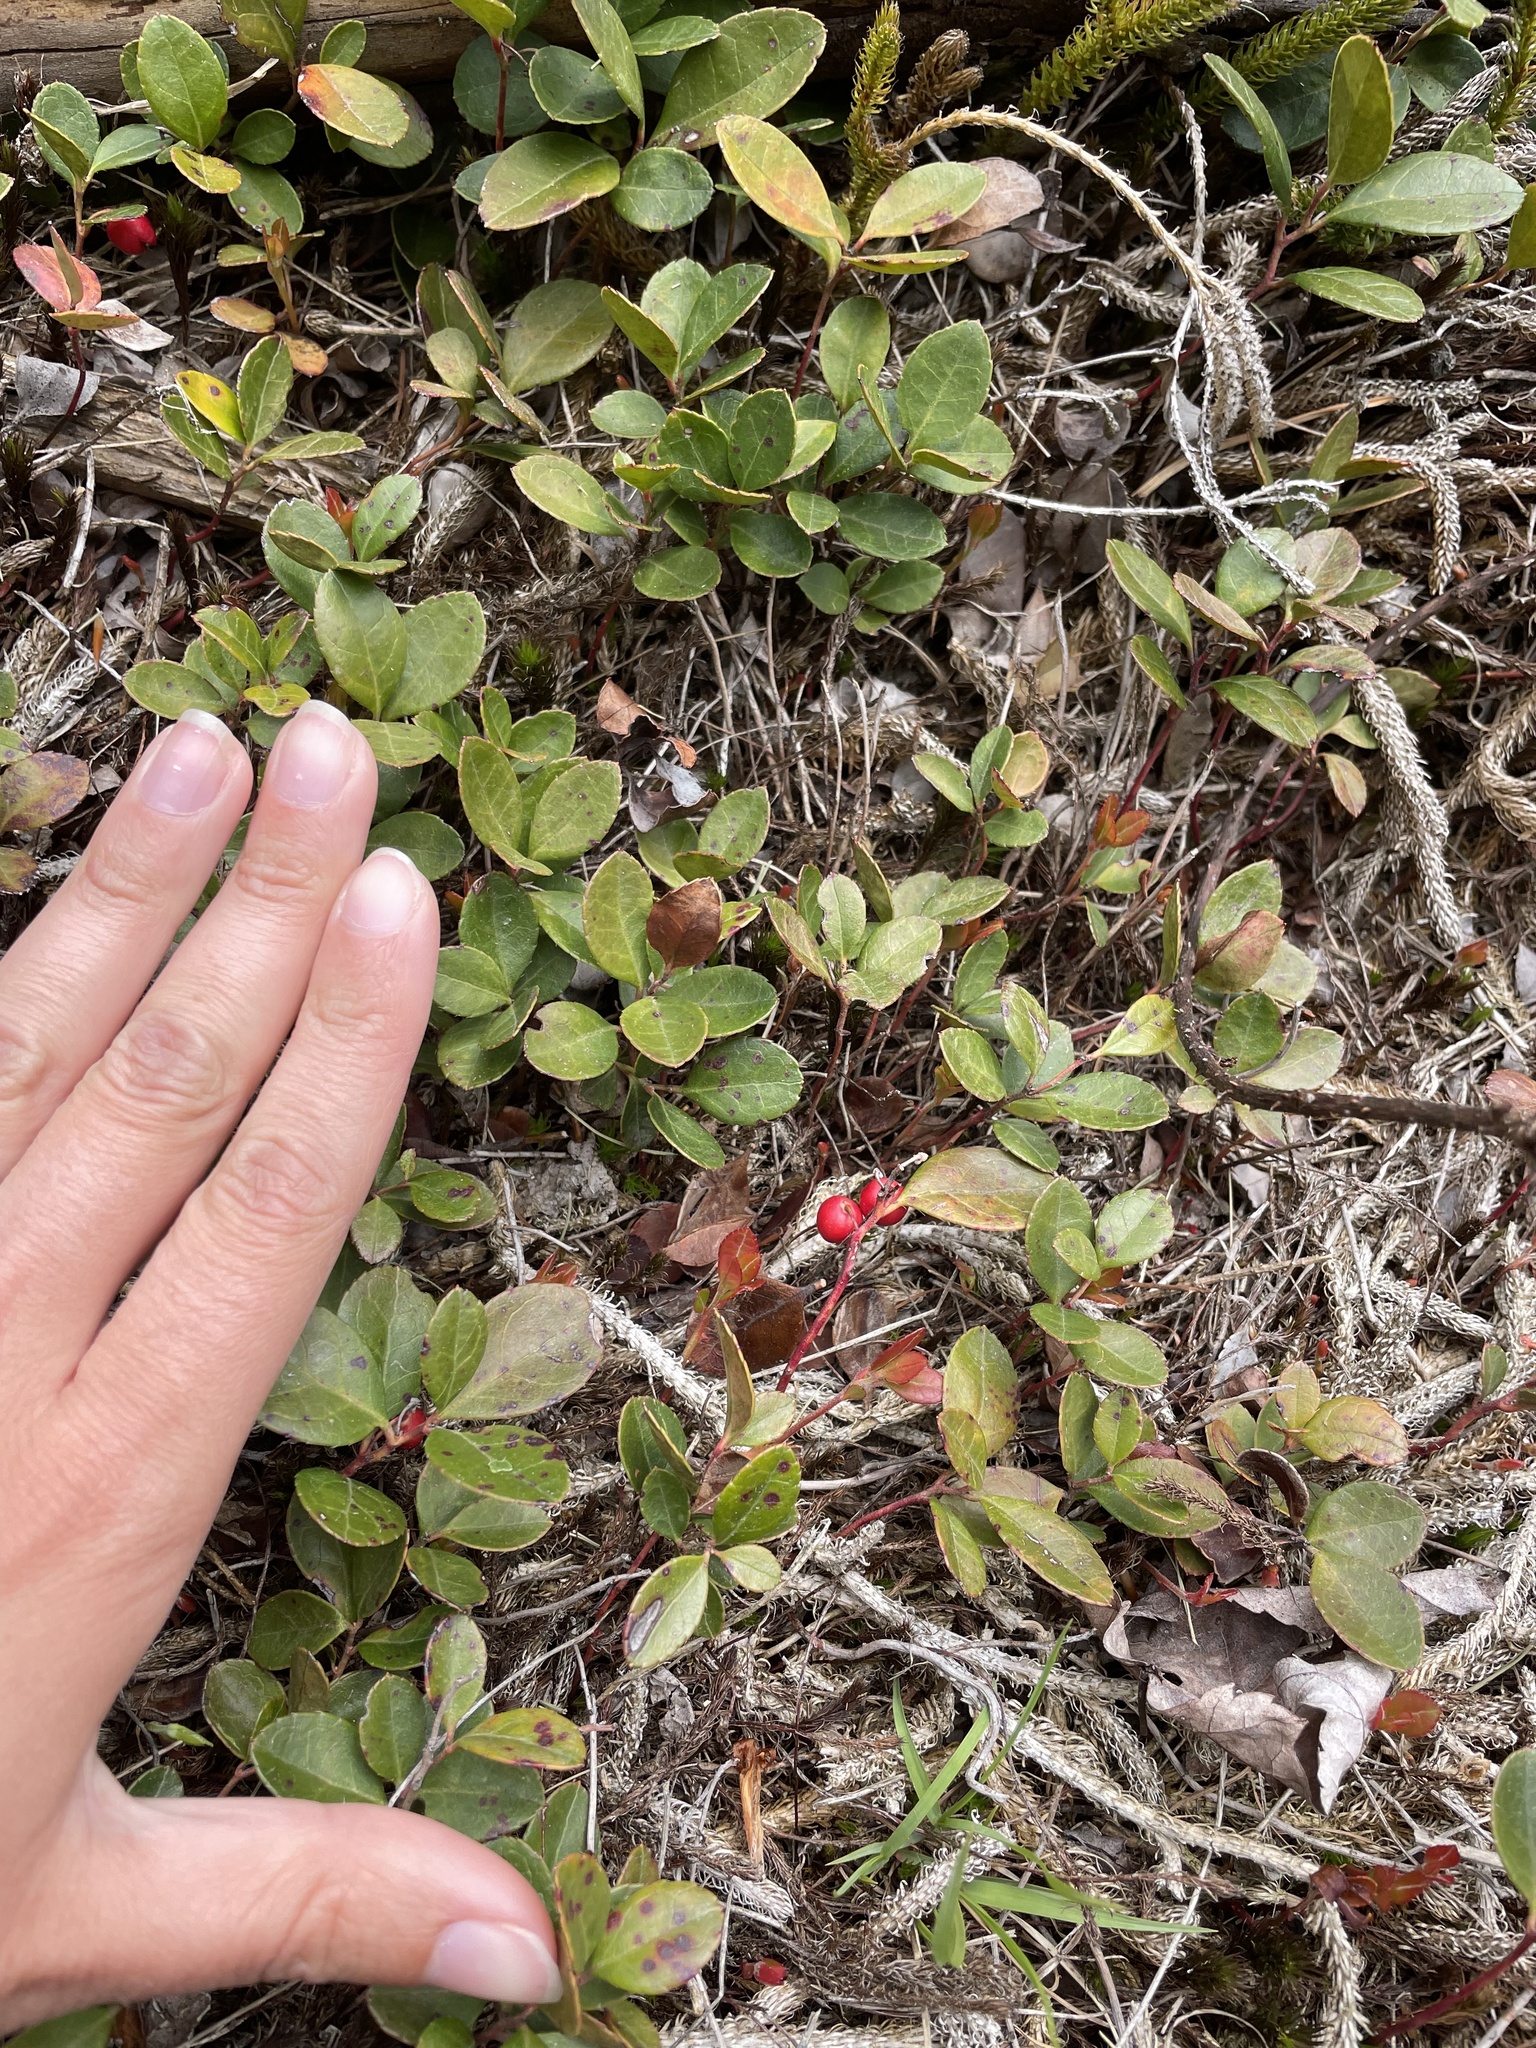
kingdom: Plantae
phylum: Tracheophyta
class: Magnoliopsida
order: Ericales
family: Ericaceae
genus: Gaultheria
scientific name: Gaultheria procumbens
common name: Checkerberry
